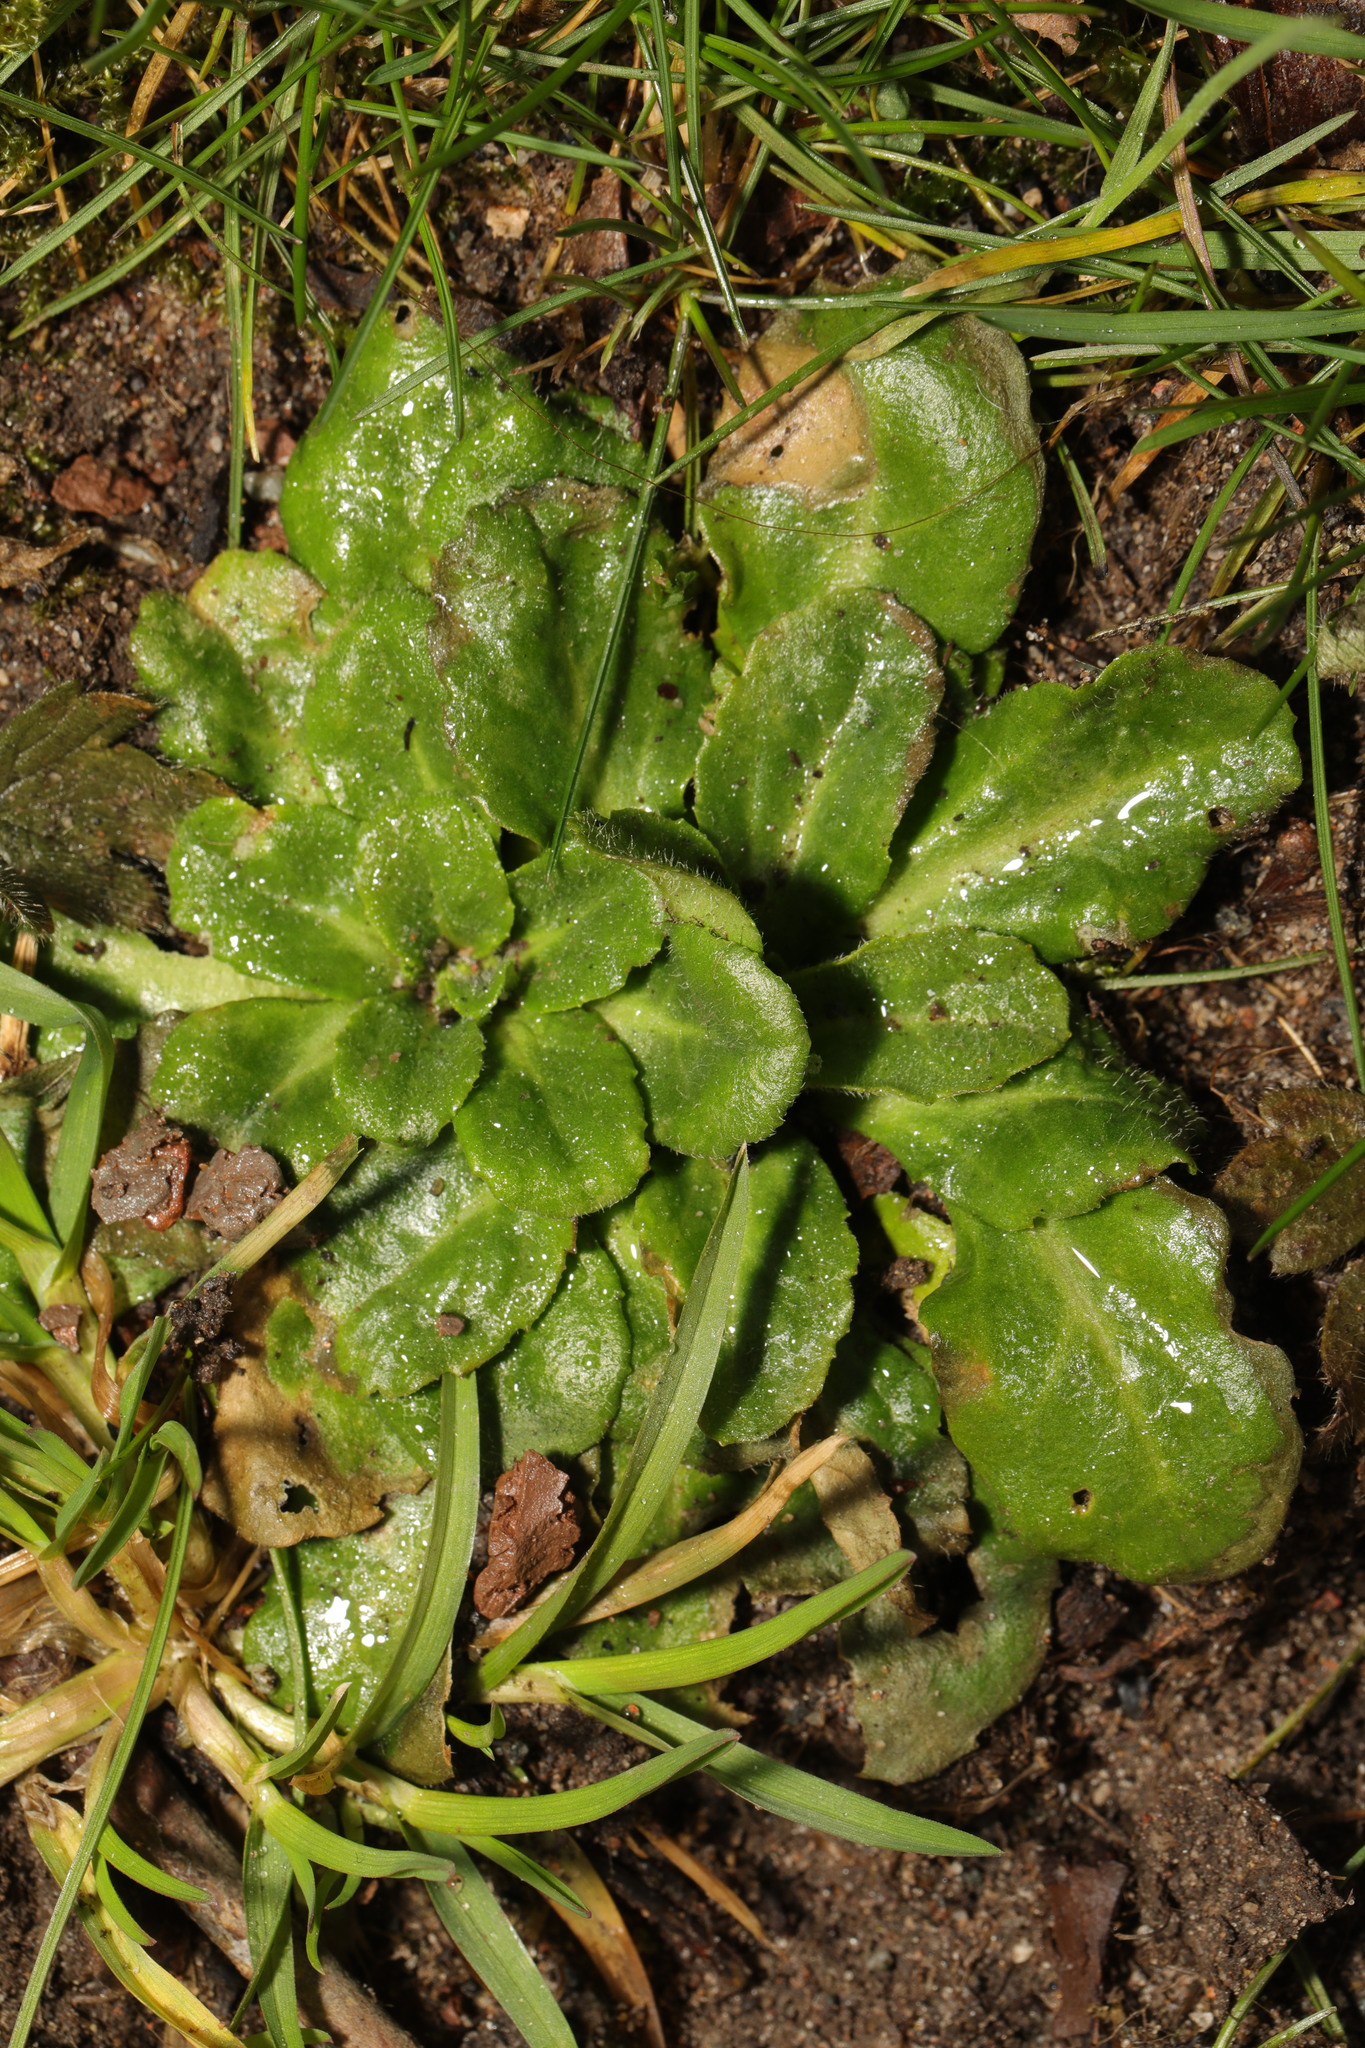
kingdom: Plantae
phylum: Tracheophyta
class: Magnoliopsida
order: Asterales
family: Asteraceae
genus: Bellis
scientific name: Bellis perennis
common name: Lawndaisy
